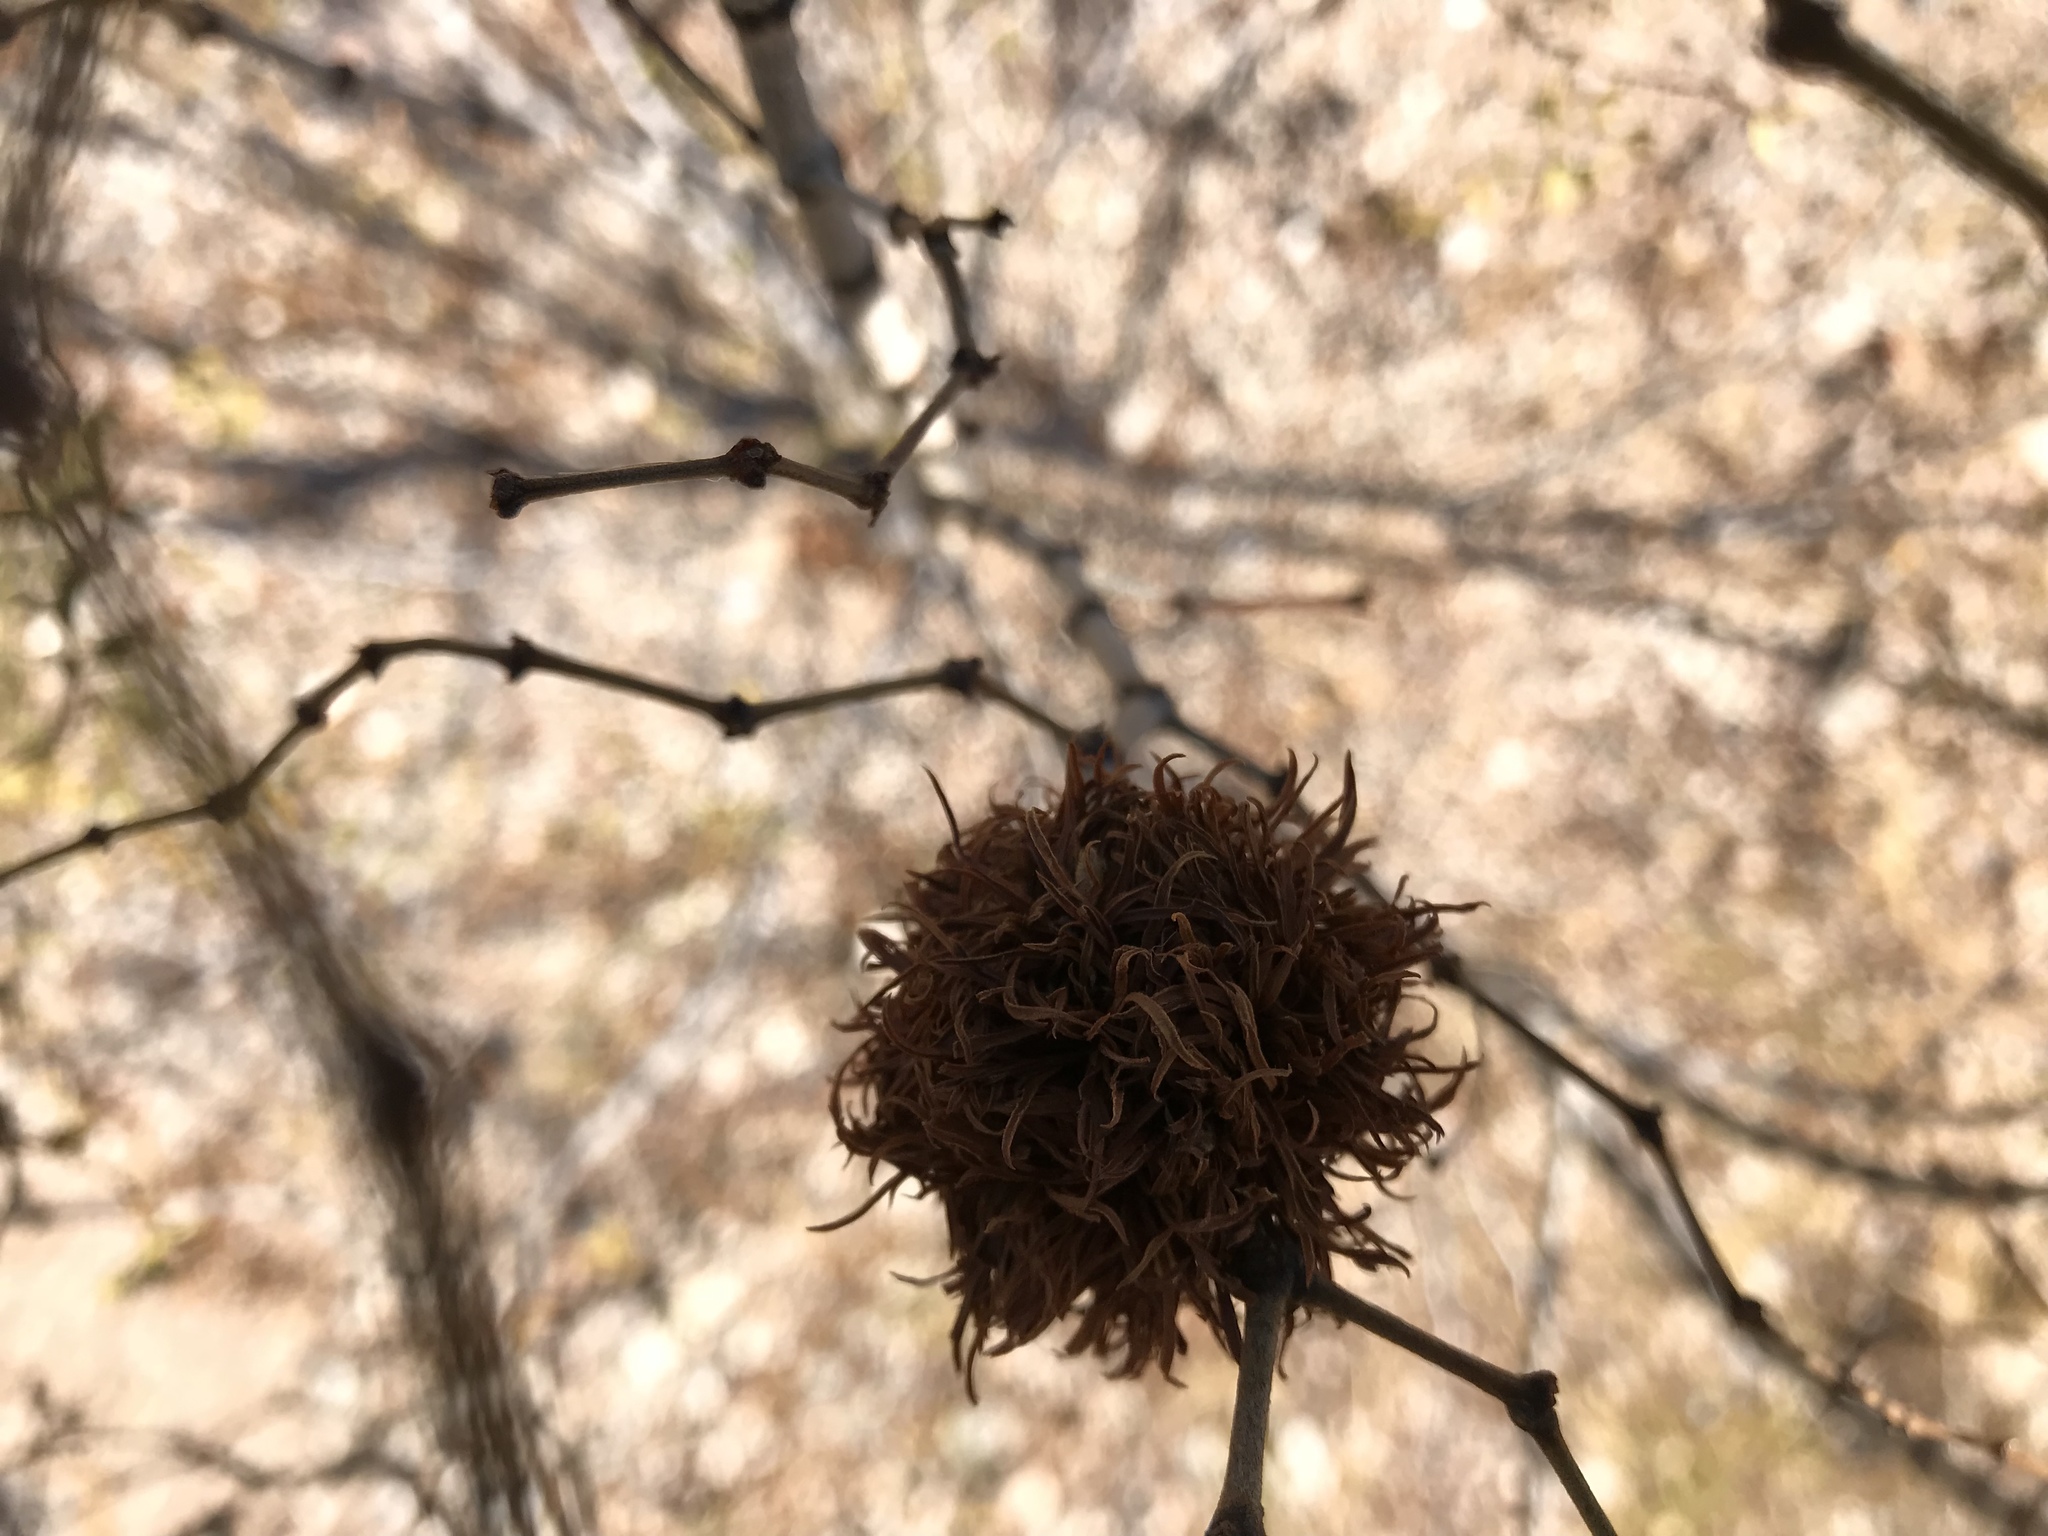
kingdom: Animalia
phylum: Arthropoda
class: Insecta
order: Diptera
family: Cecidomyiidae
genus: Asphondylia
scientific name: Asphondylia auripila
